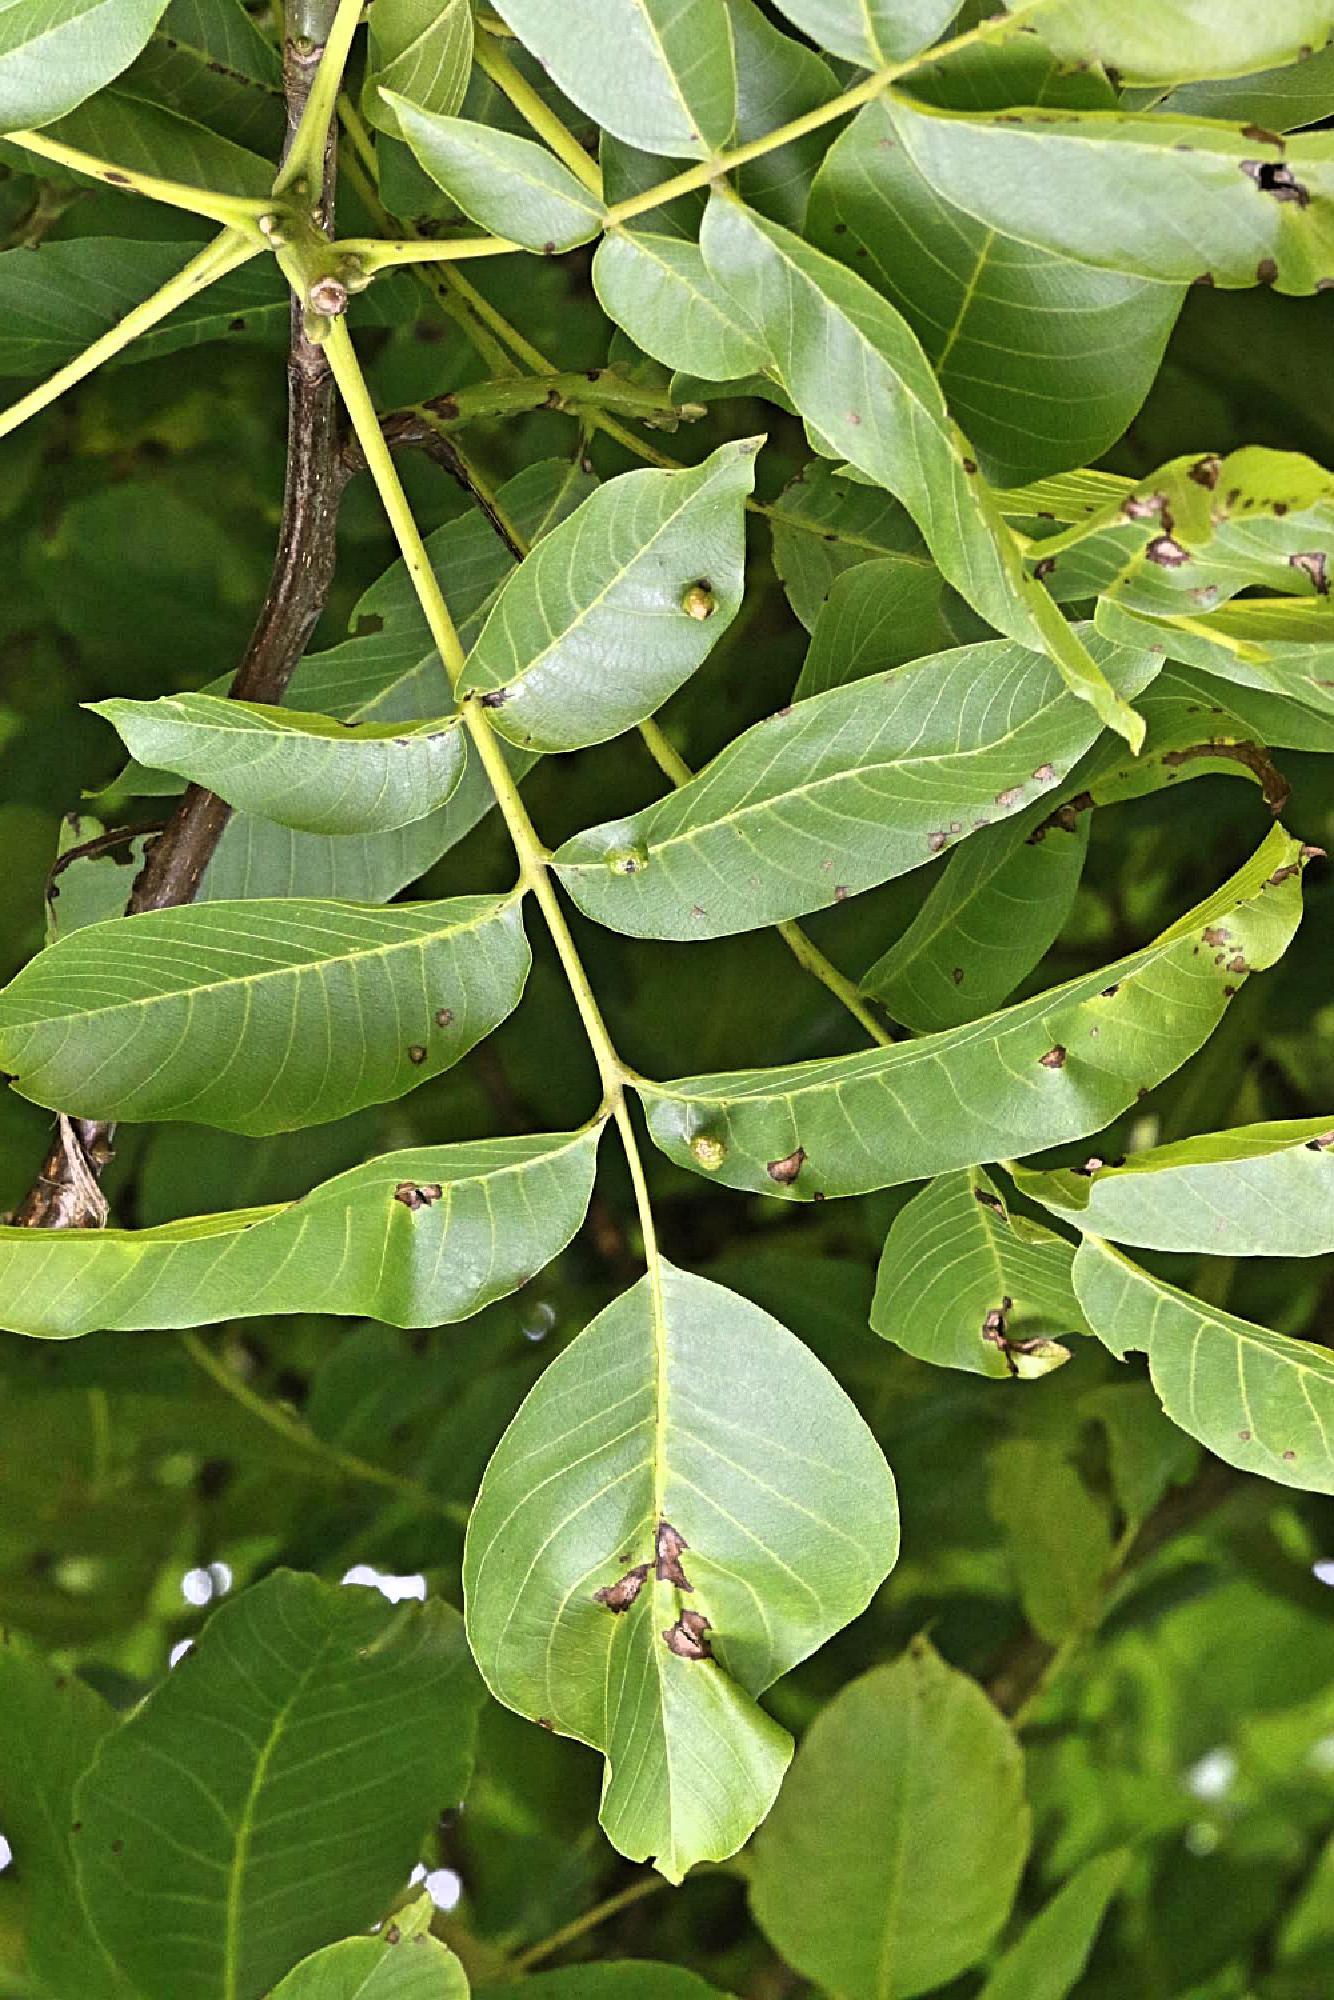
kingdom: Animalia
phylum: Arthropoda
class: Arachnida
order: Trombidiformes
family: Eriophyidae
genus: Aceria
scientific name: Aceria erinea
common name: Persian walnut erineum mite
